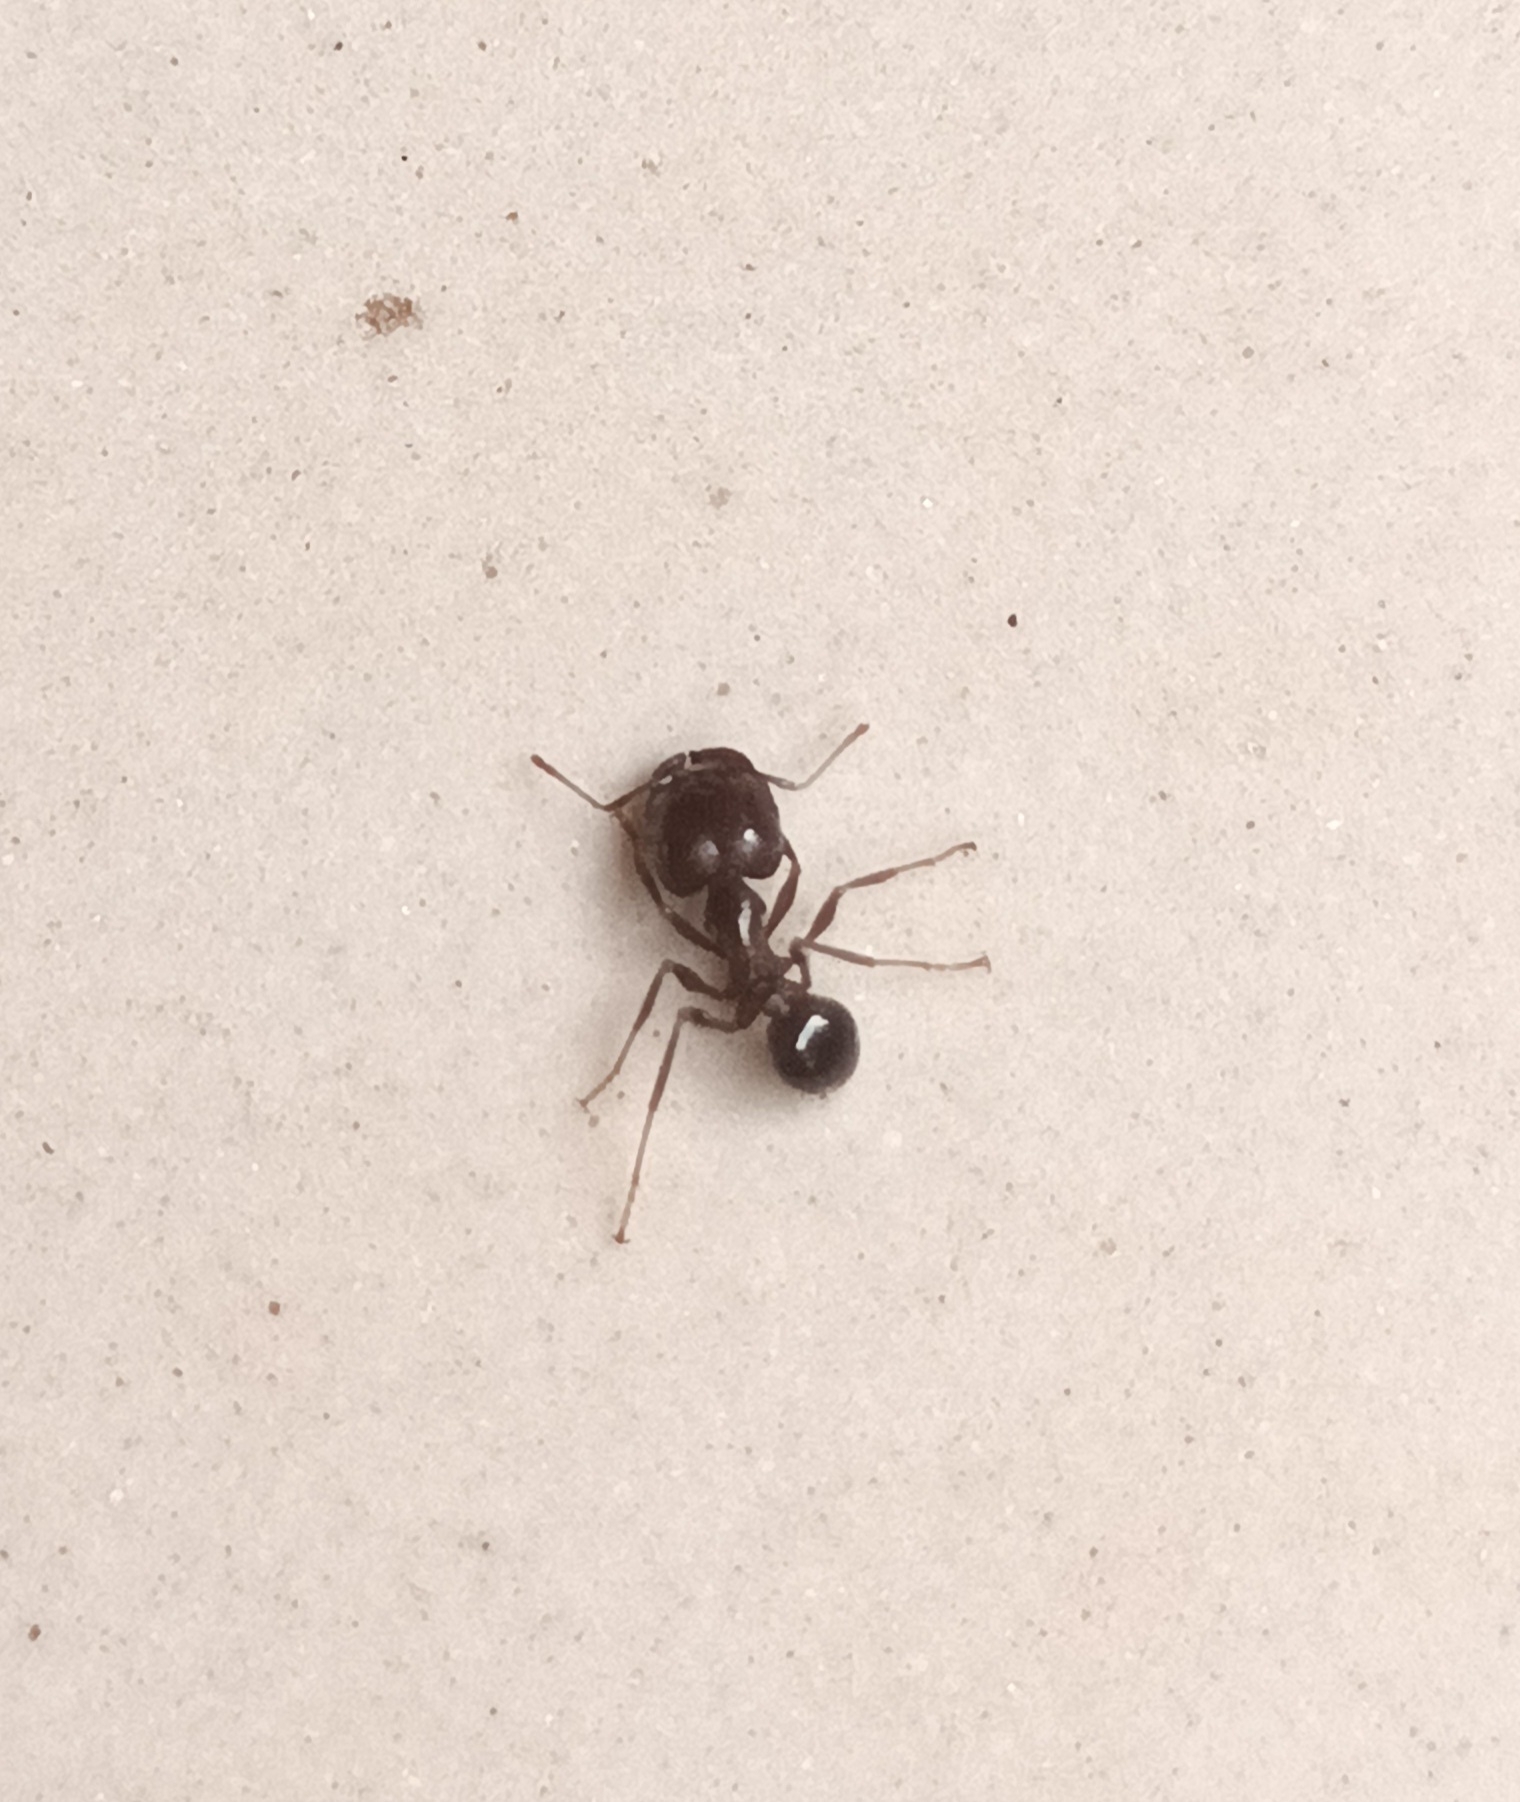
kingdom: Animalia
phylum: Arthropoda
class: Insecta
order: Hymenoptera
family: Formicidae
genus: Pheidologeton
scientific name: Pheidologeton diversus
